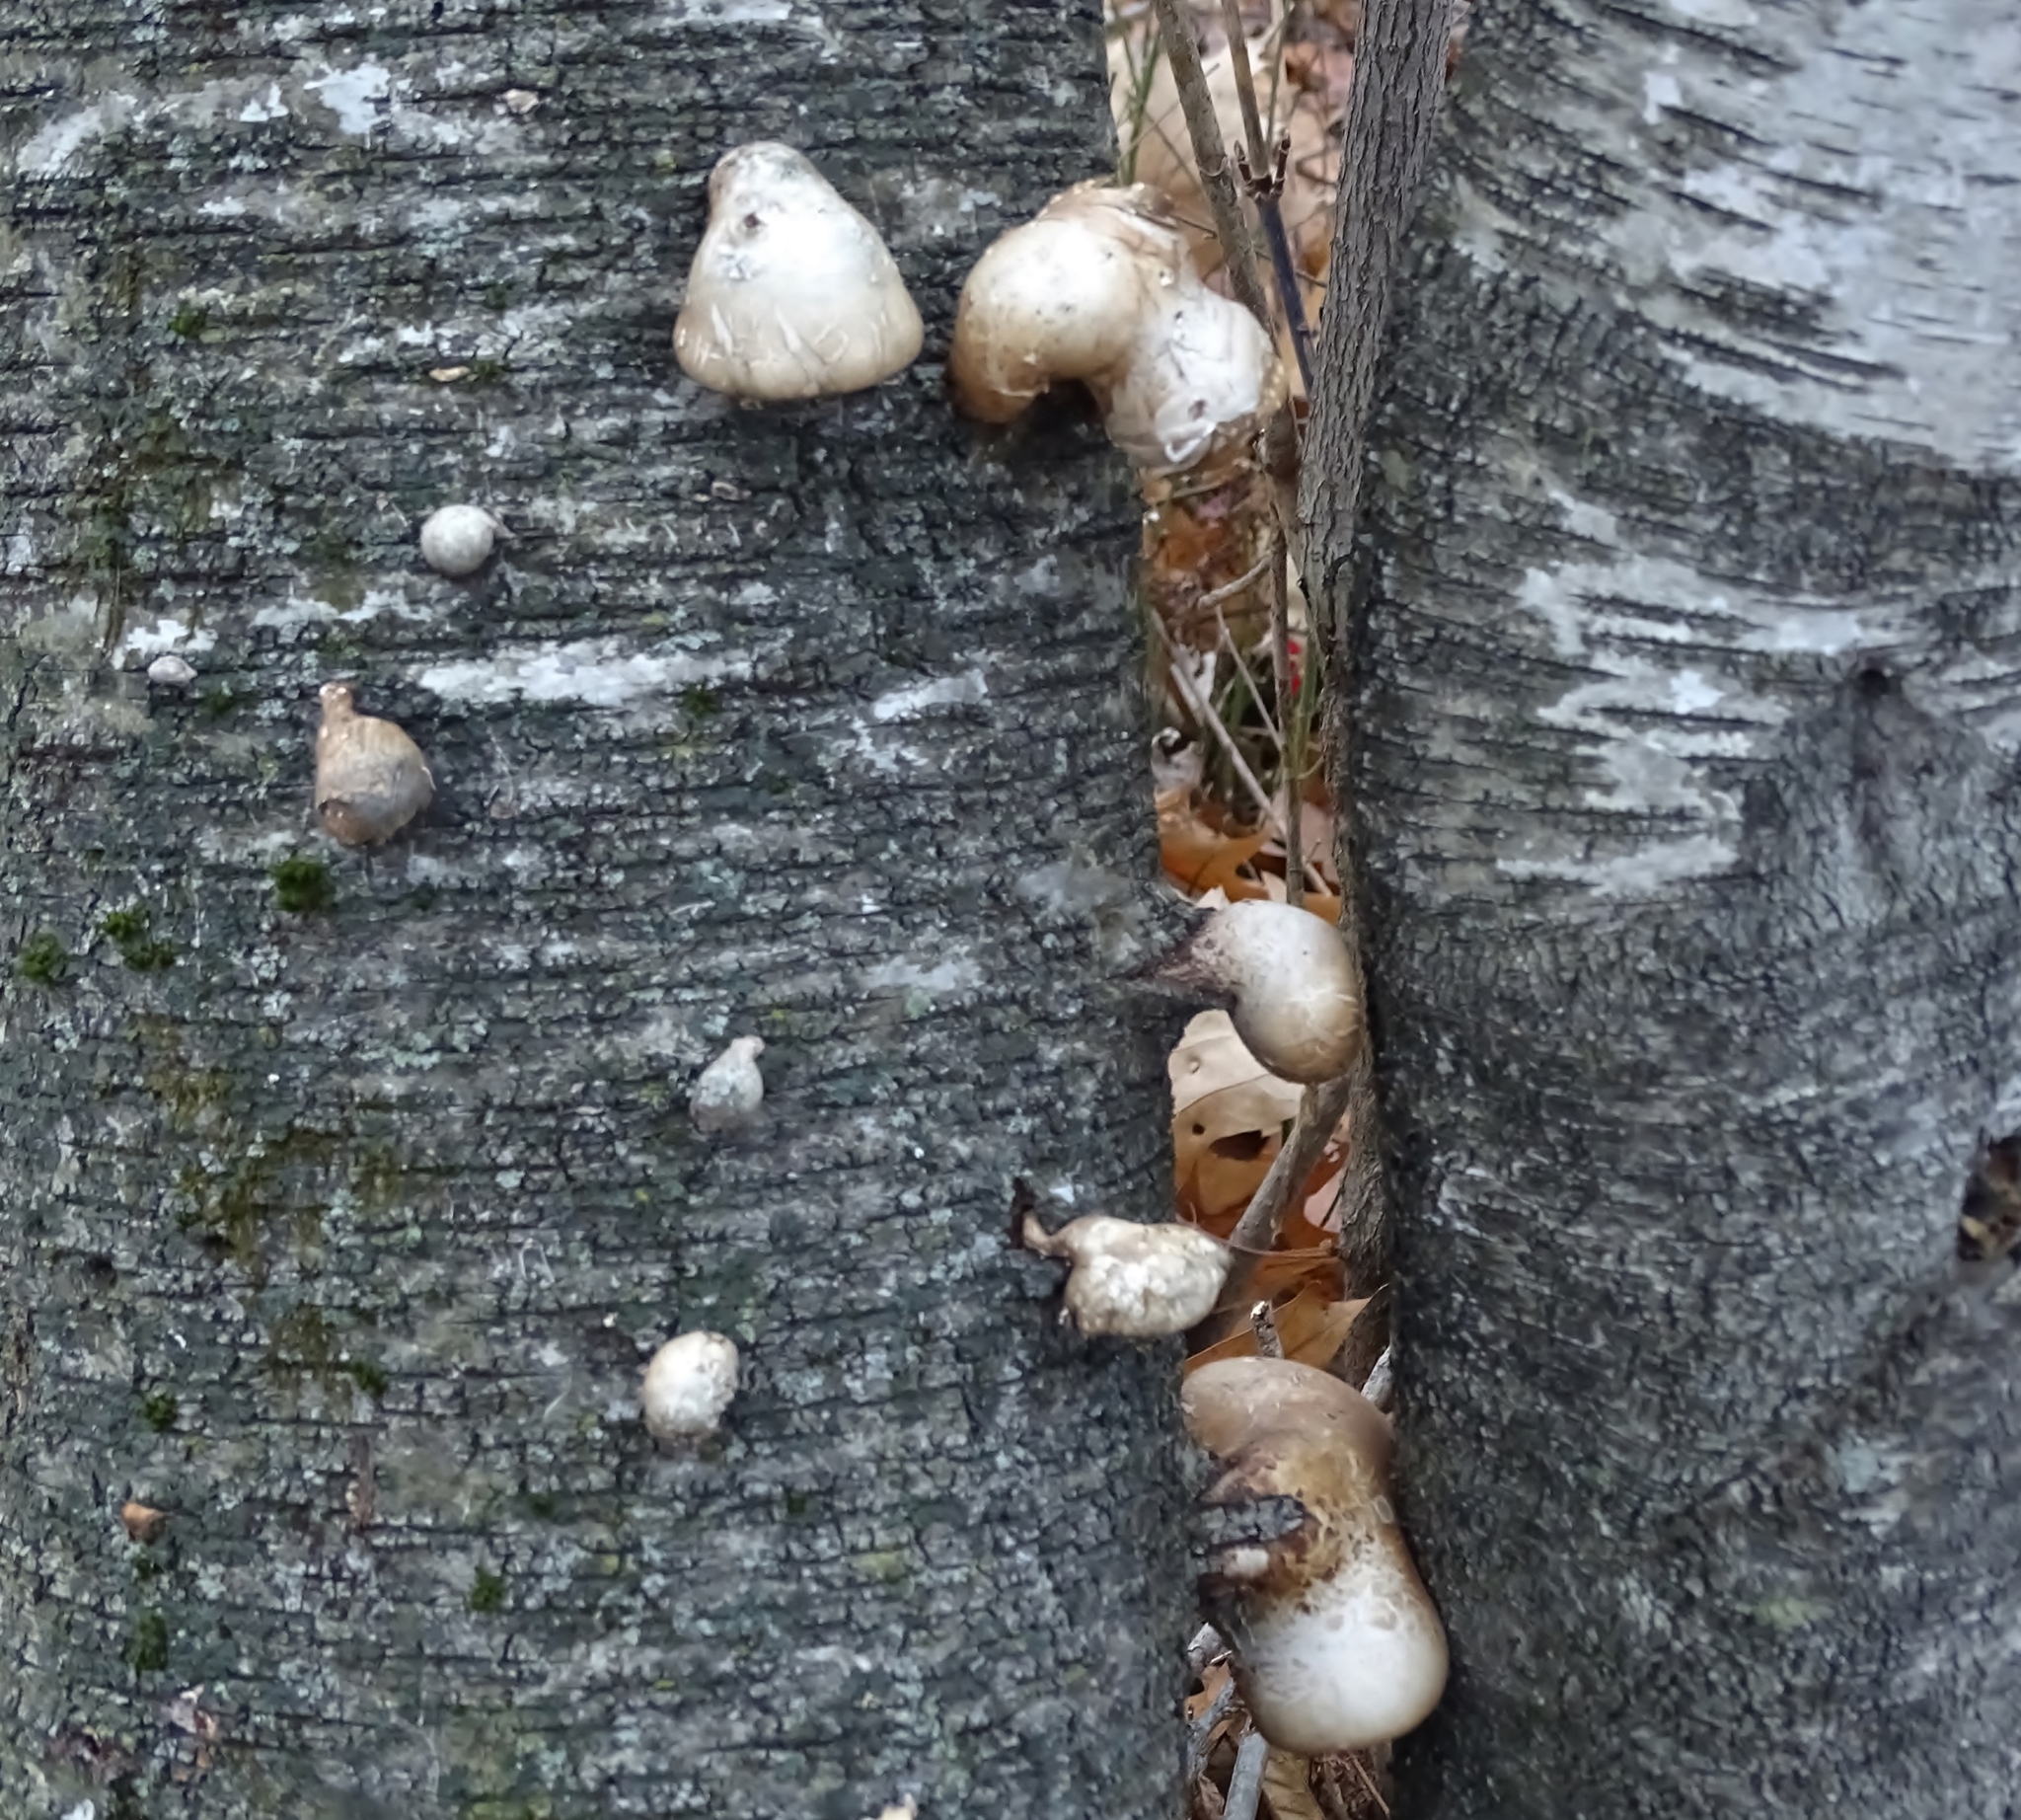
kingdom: Fungi
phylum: Basidiomycota
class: Agaricomycetes
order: Polyporales
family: Fomitopsidaceae
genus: Fomitopsis
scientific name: Fomitopsis betulina
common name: Birch polypore
